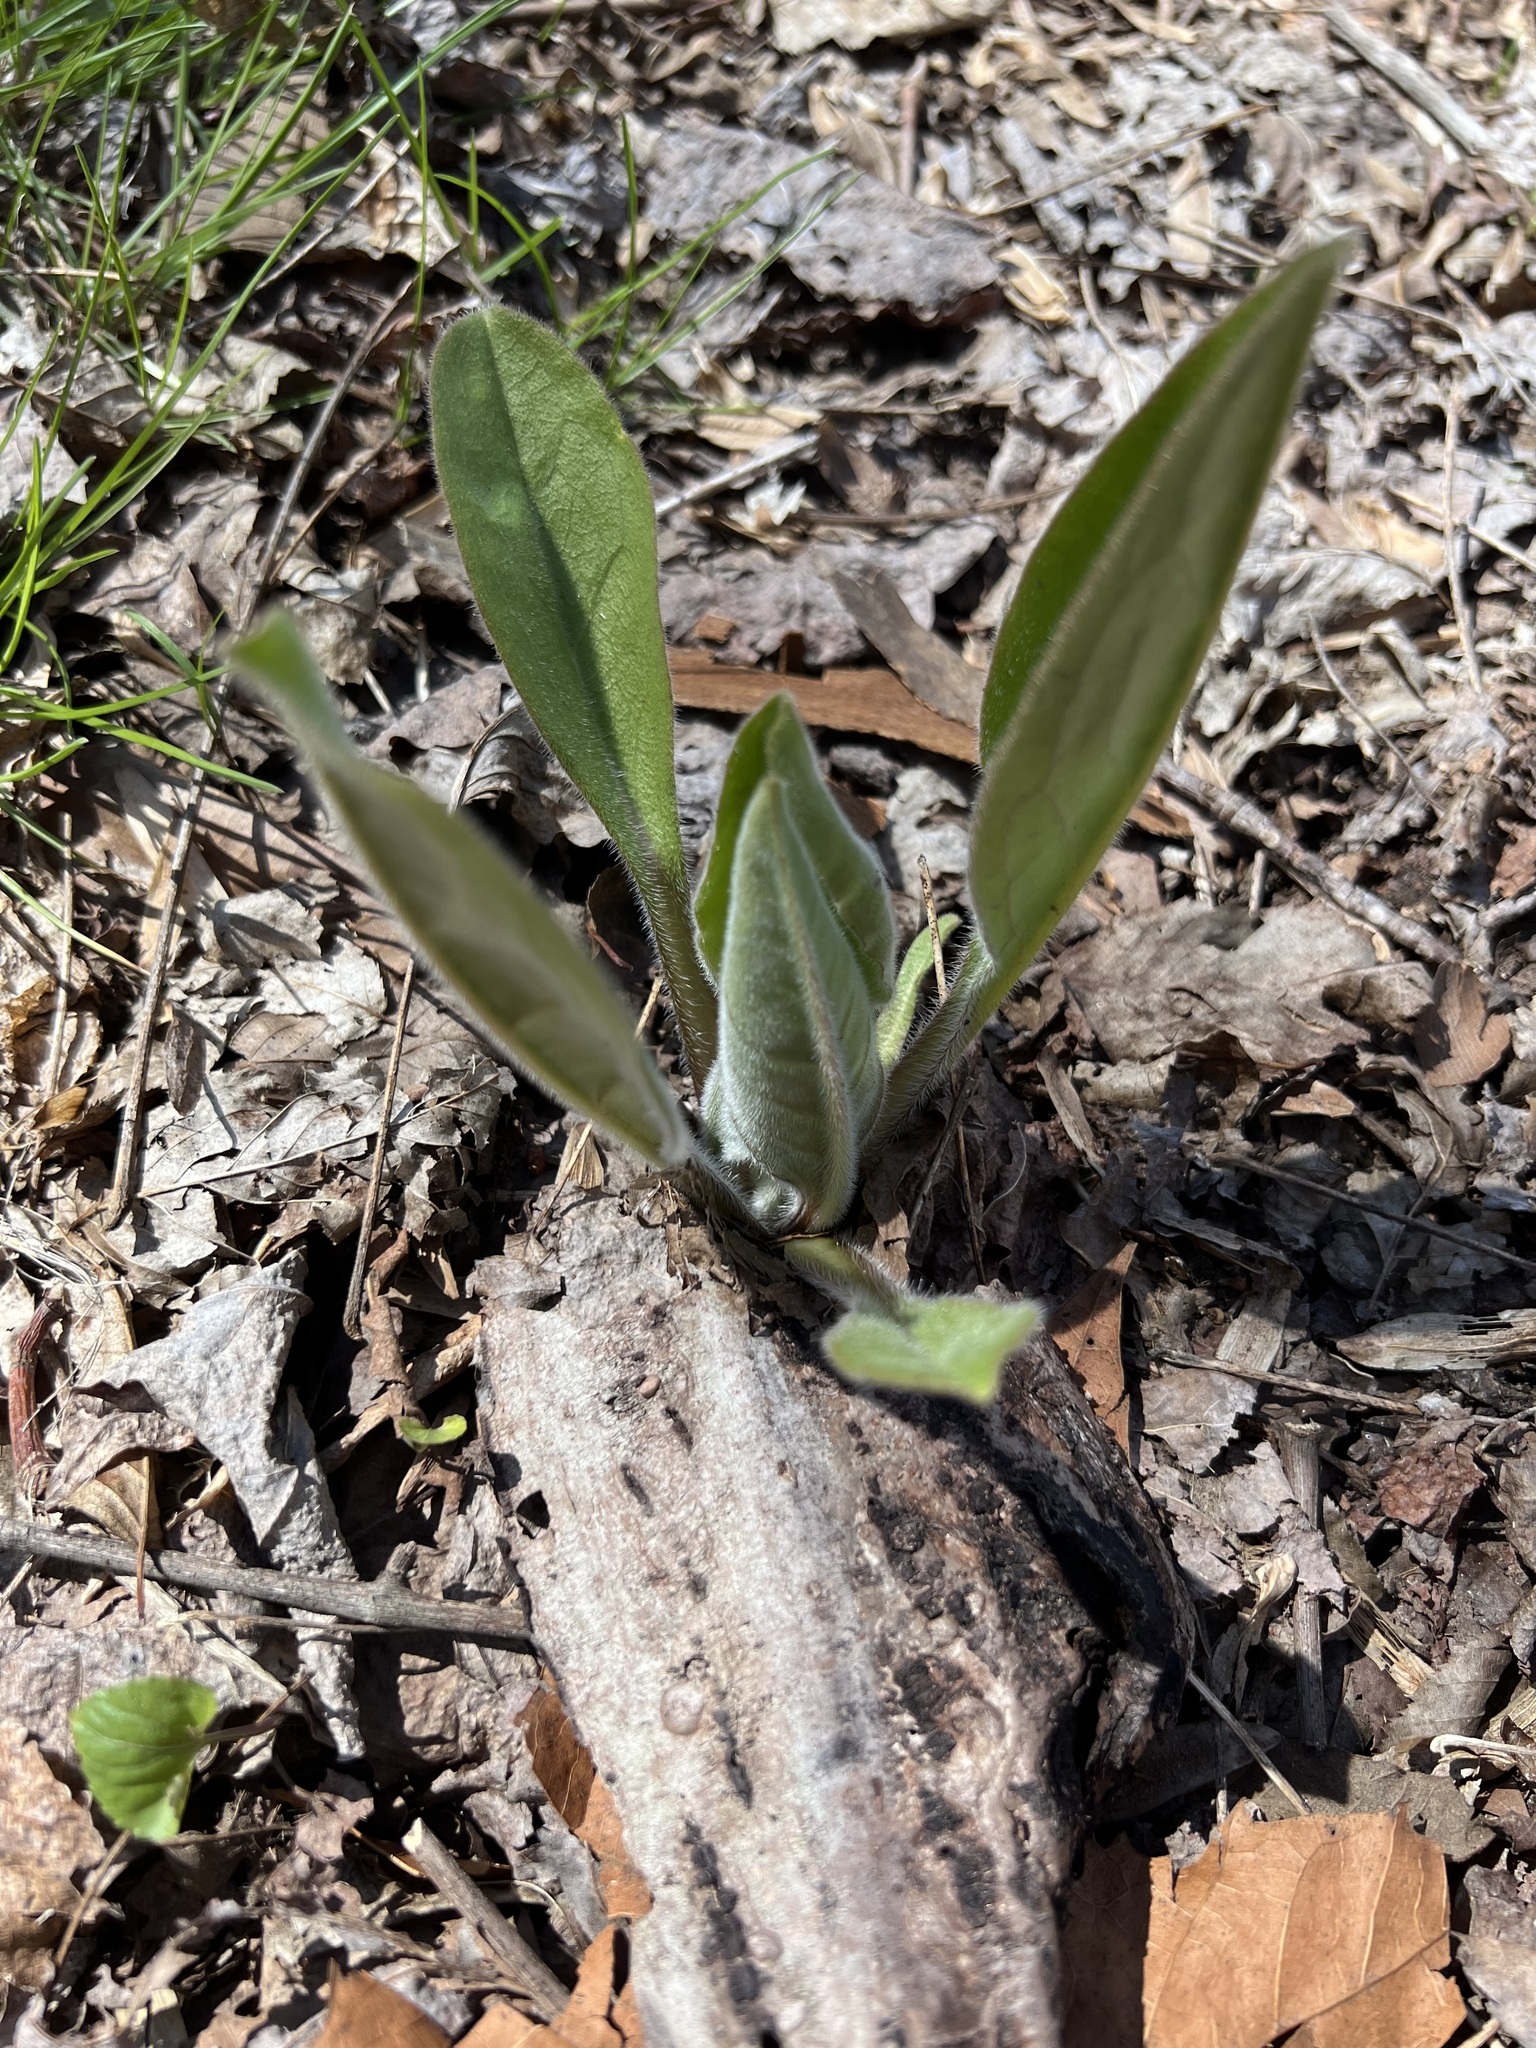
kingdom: Plantae
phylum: Tracheophyta
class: Magnoliopsida
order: Boraginales
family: Boraginaceae
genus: Andersonglossum
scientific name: Andersonglossum virginianum
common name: Wild comfrey
